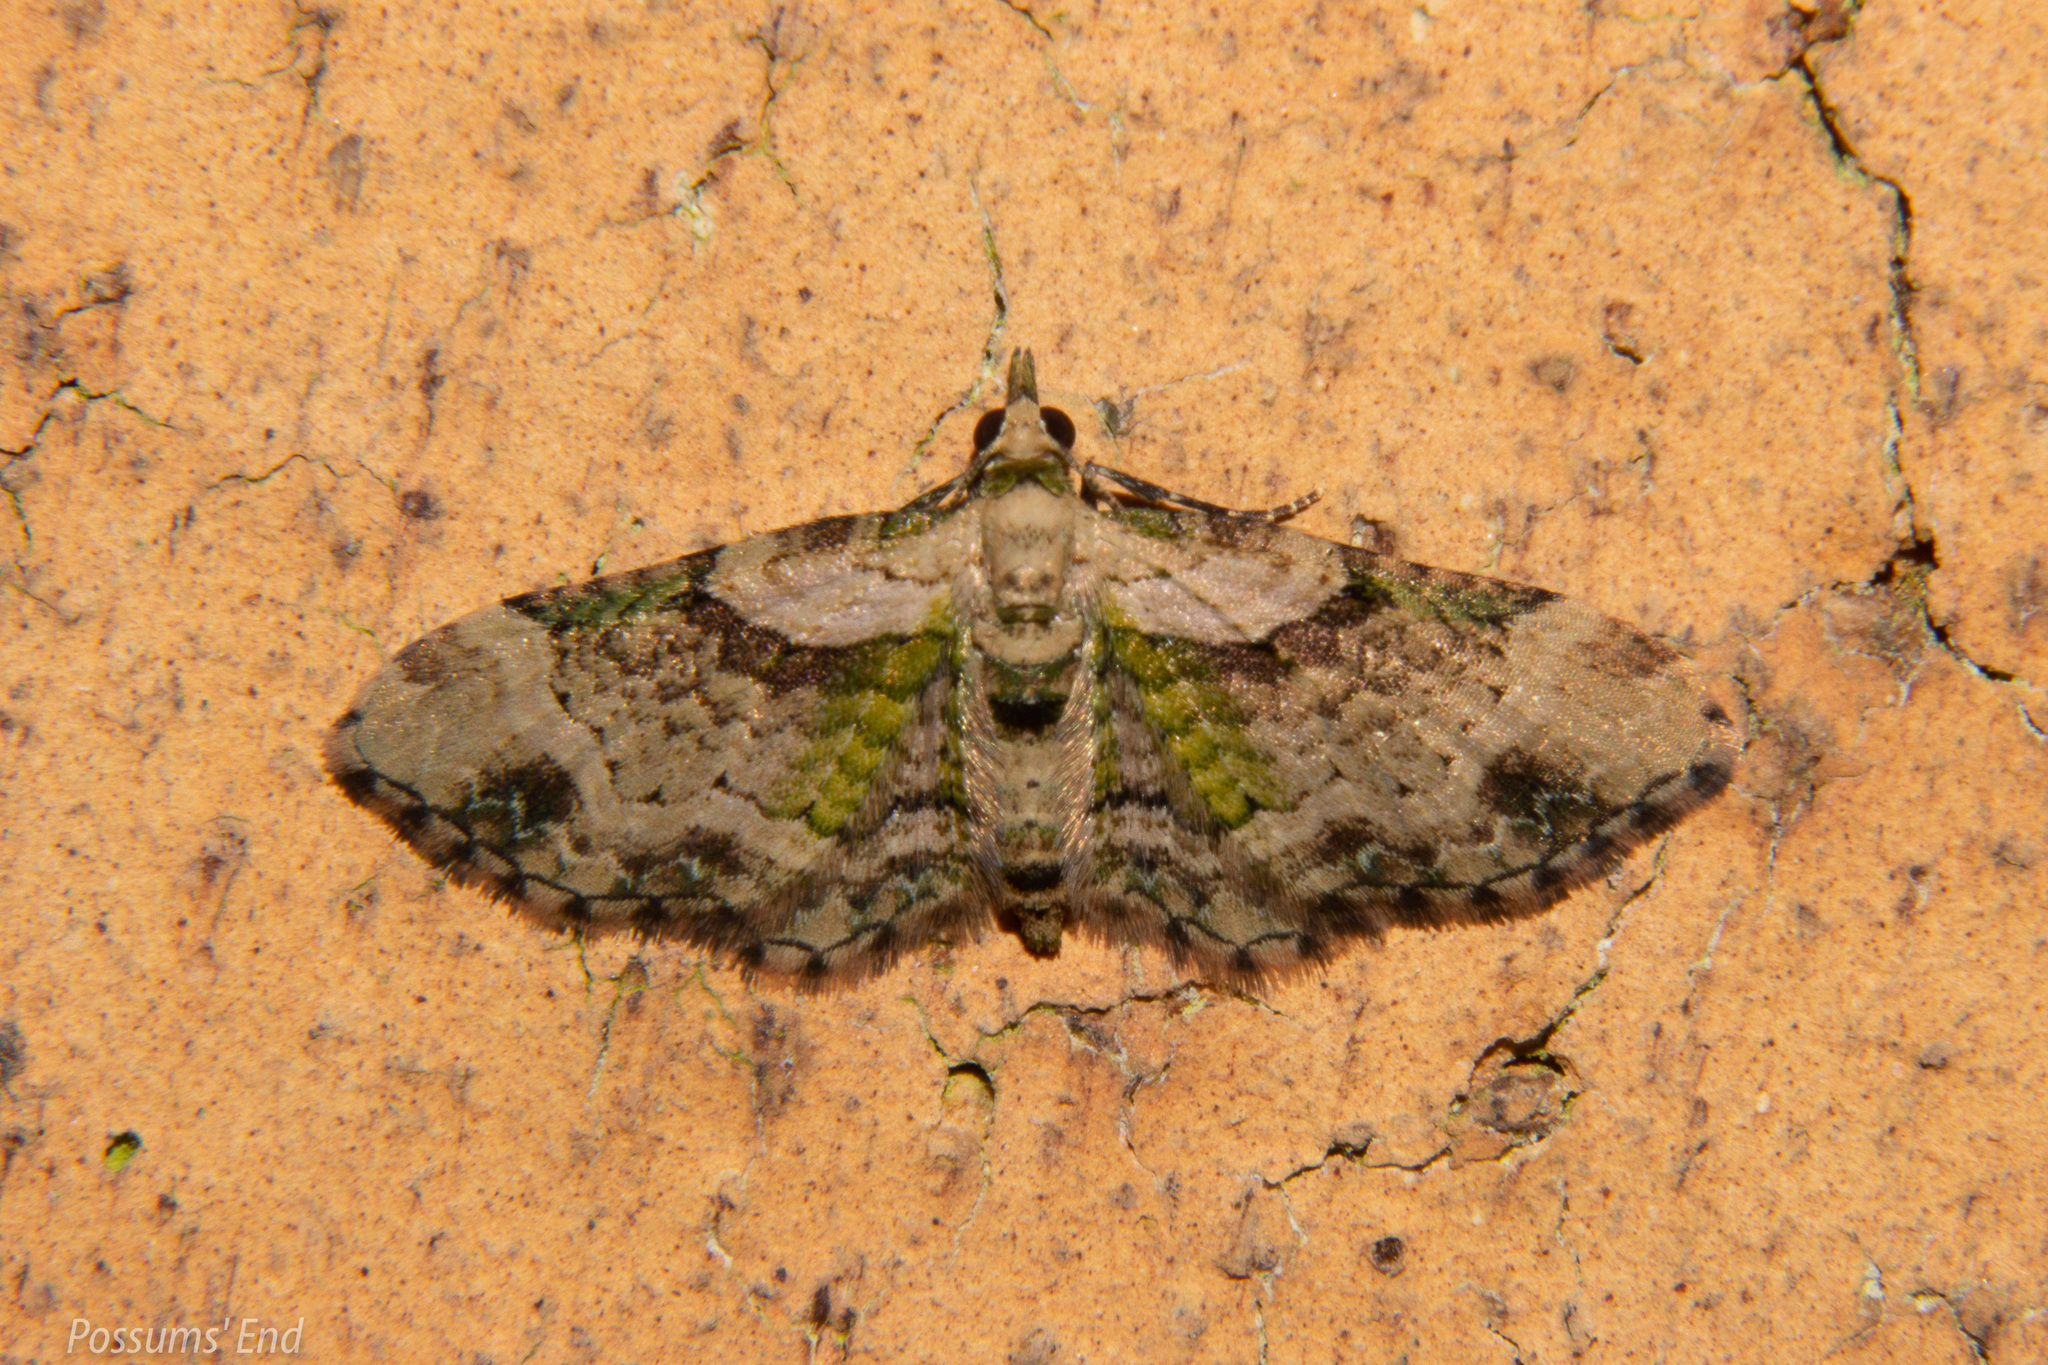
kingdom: Animalia
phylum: Arthropoda
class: Insecta
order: Lepidoptera
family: Geometridae
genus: Chloroclystis
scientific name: Chloroclystis
